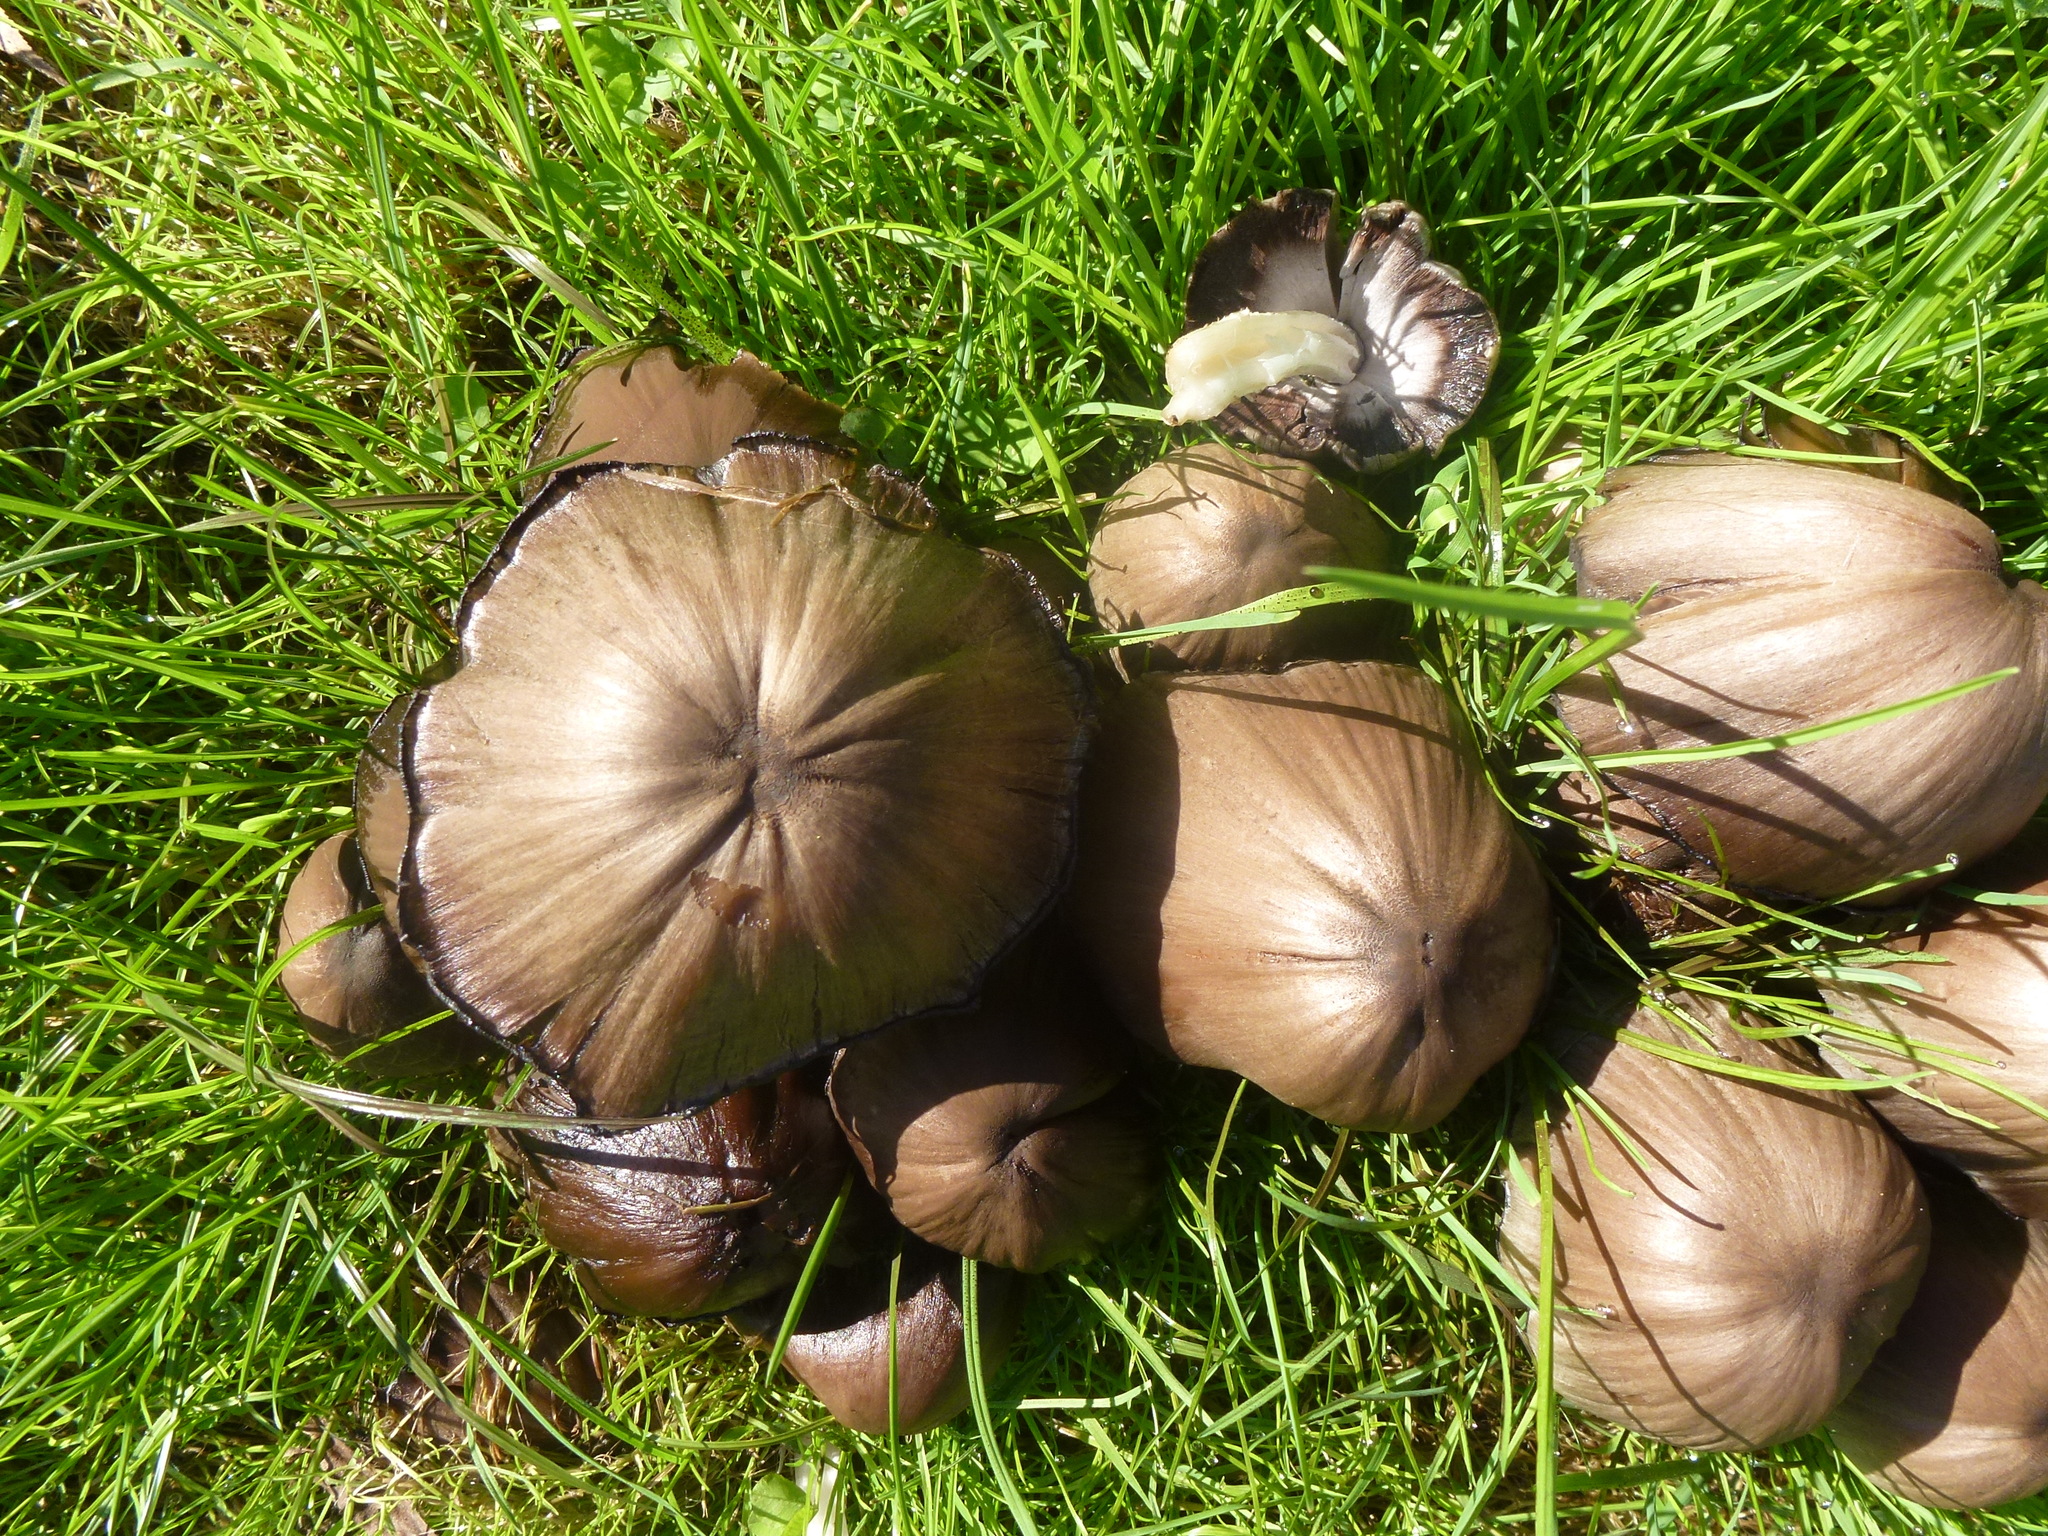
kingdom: Fungi
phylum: Basidiomycota
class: Agaricomycetes
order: Agaricales
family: Psathyrellaceae
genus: Coprinopsis
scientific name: Coprinopsis atramentaria
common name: Common ink-cap
